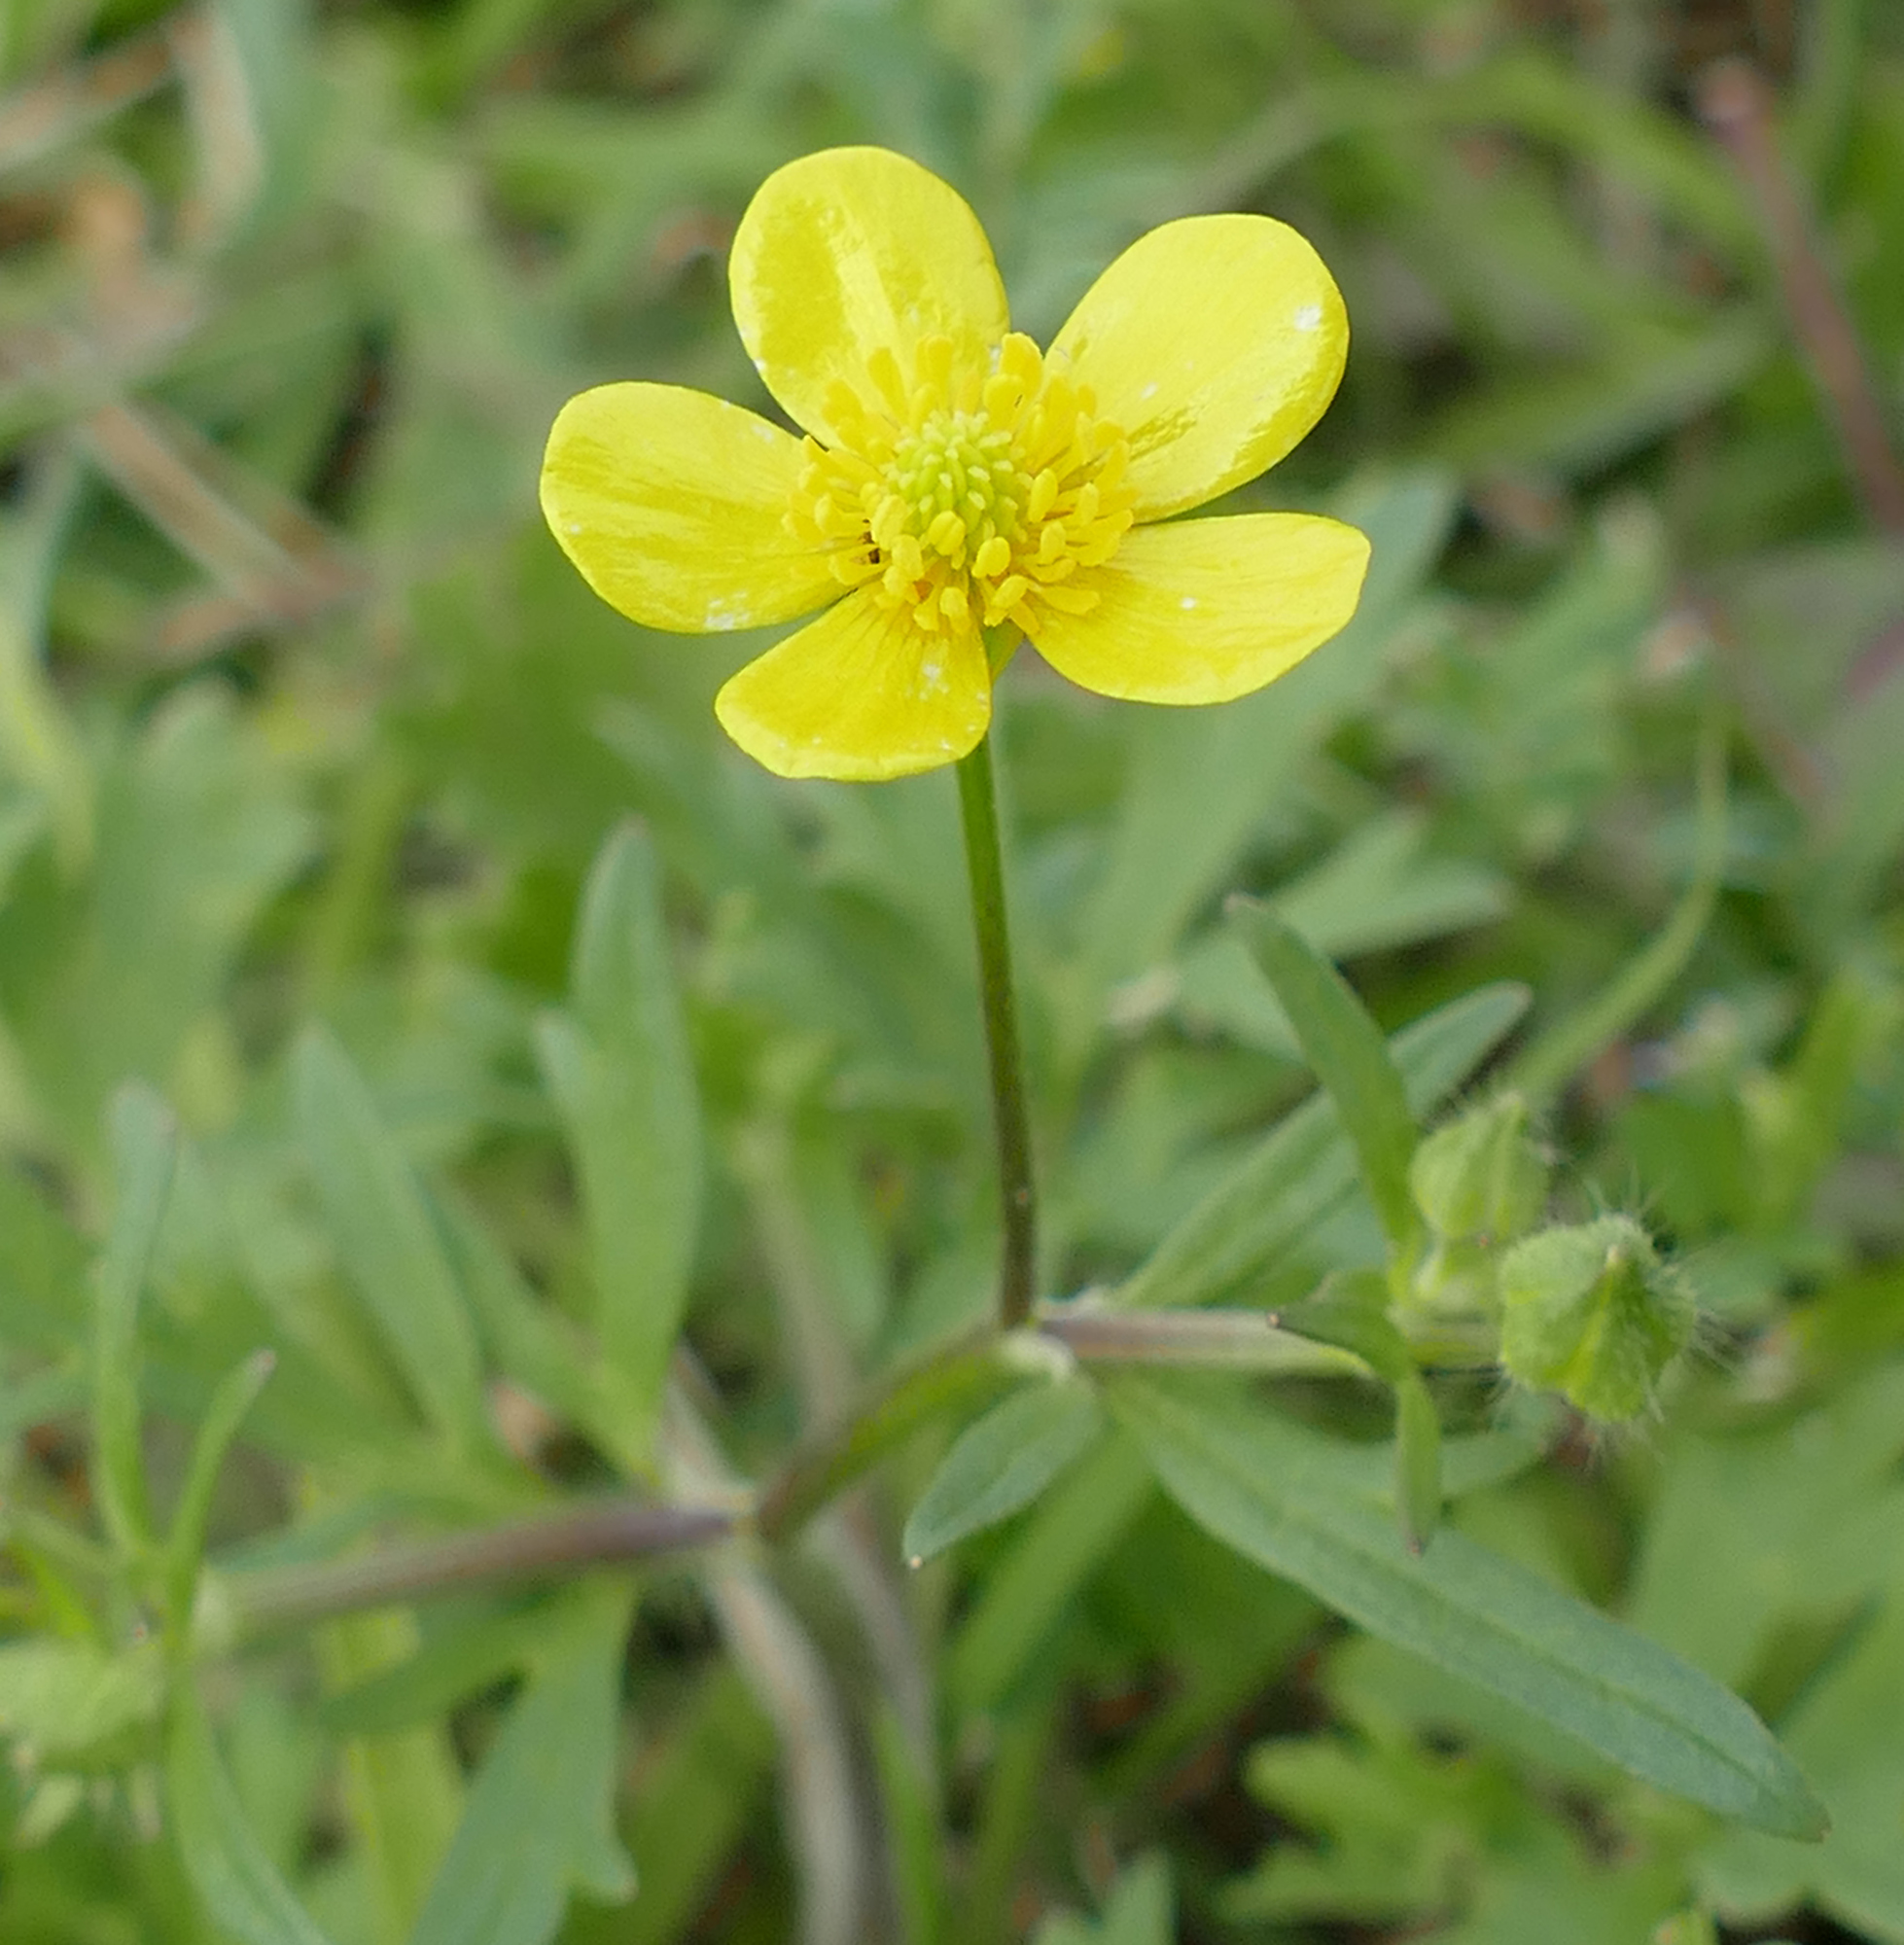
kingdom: Plantae
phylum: Tracheophyta
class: Magnoliopsida
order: Ranunculales
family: Ranunculaceae
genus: Ranunculus
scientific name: Ranunculus sardous
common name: Hairy buttercup
